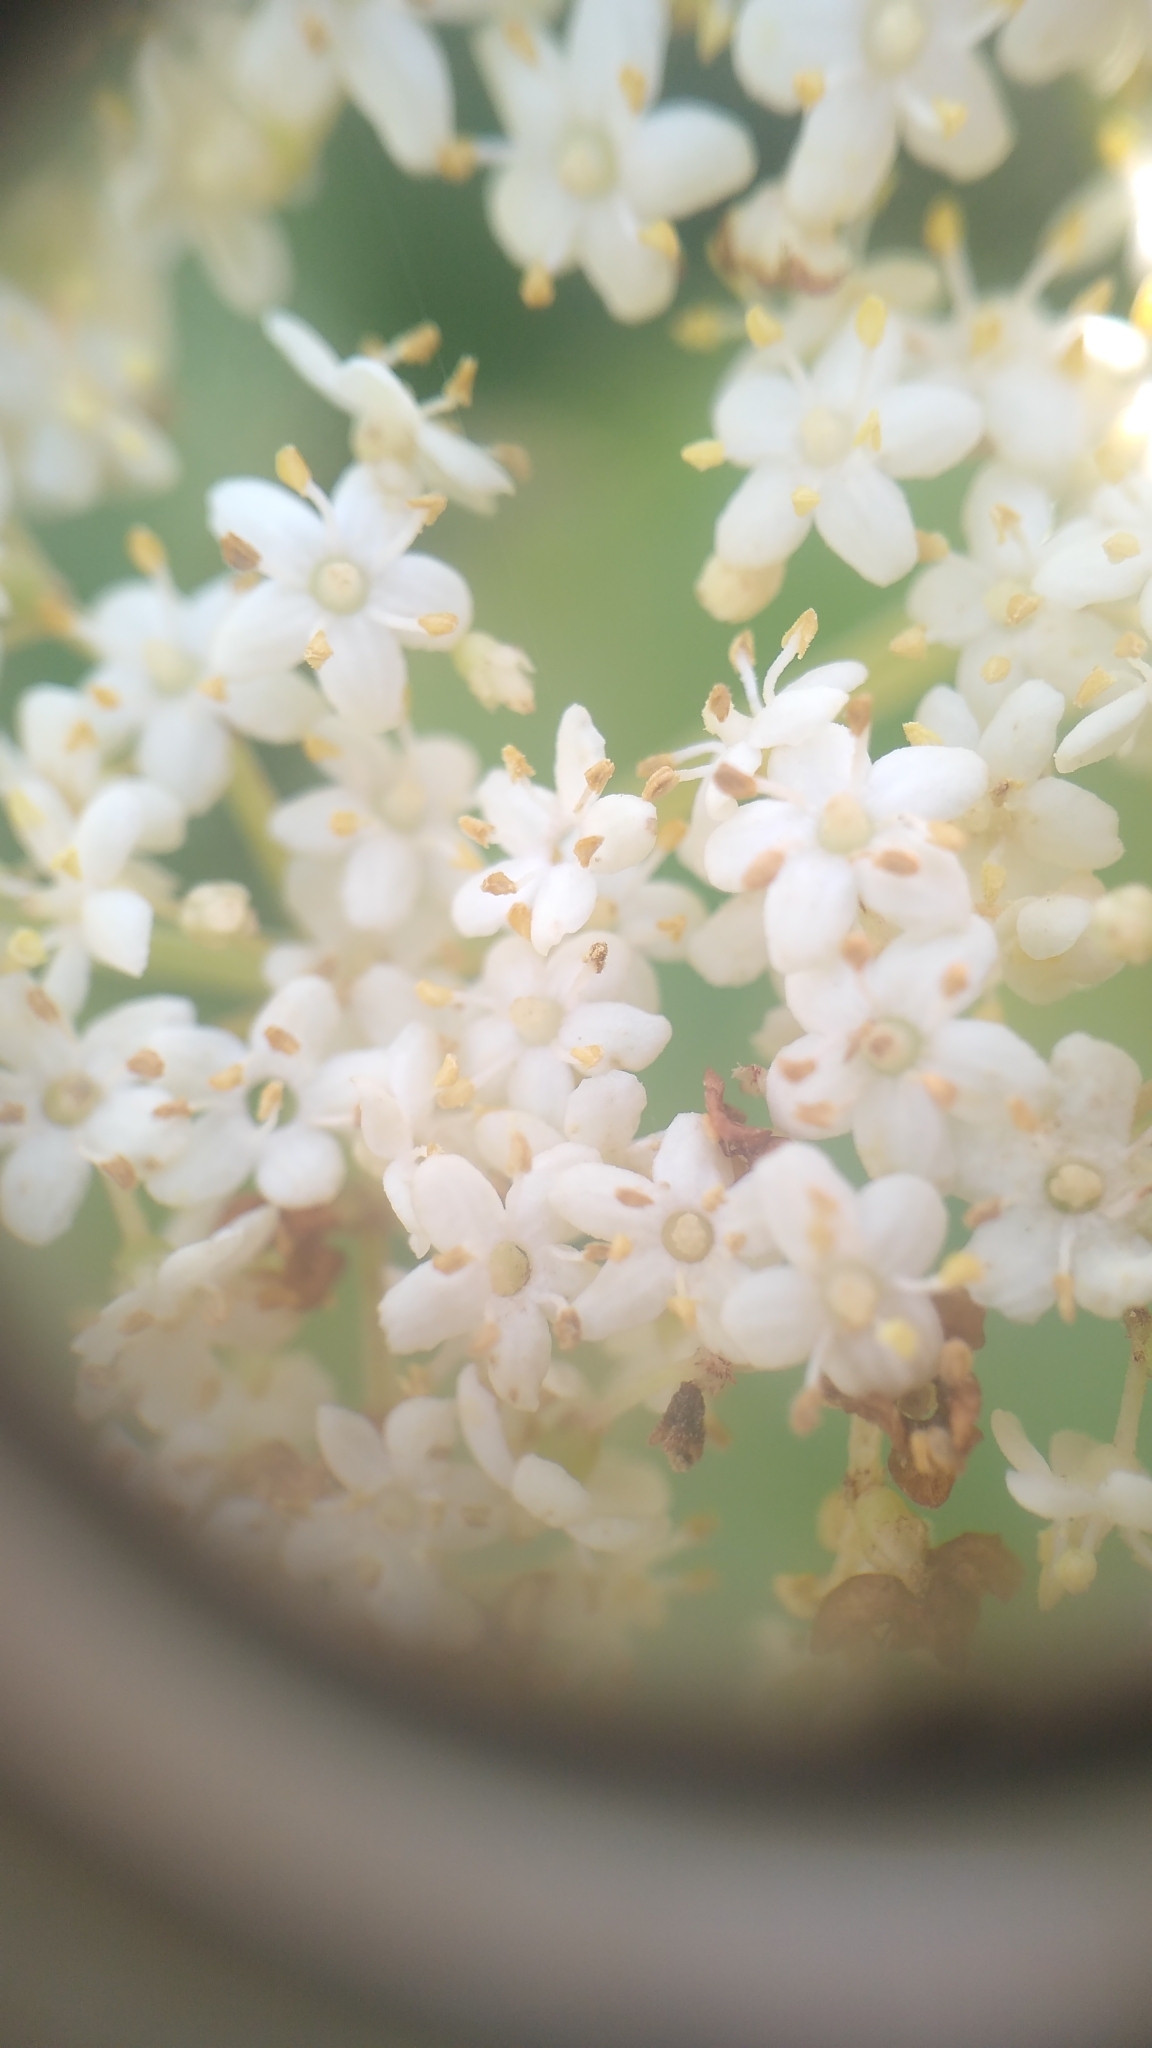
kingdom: Plantae
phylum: Tracheophyta
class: Magnoliopsida
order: Dipsacales
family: Viburnaceae
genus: Sambucus
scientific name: Sambucus canadensis
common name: American elder
